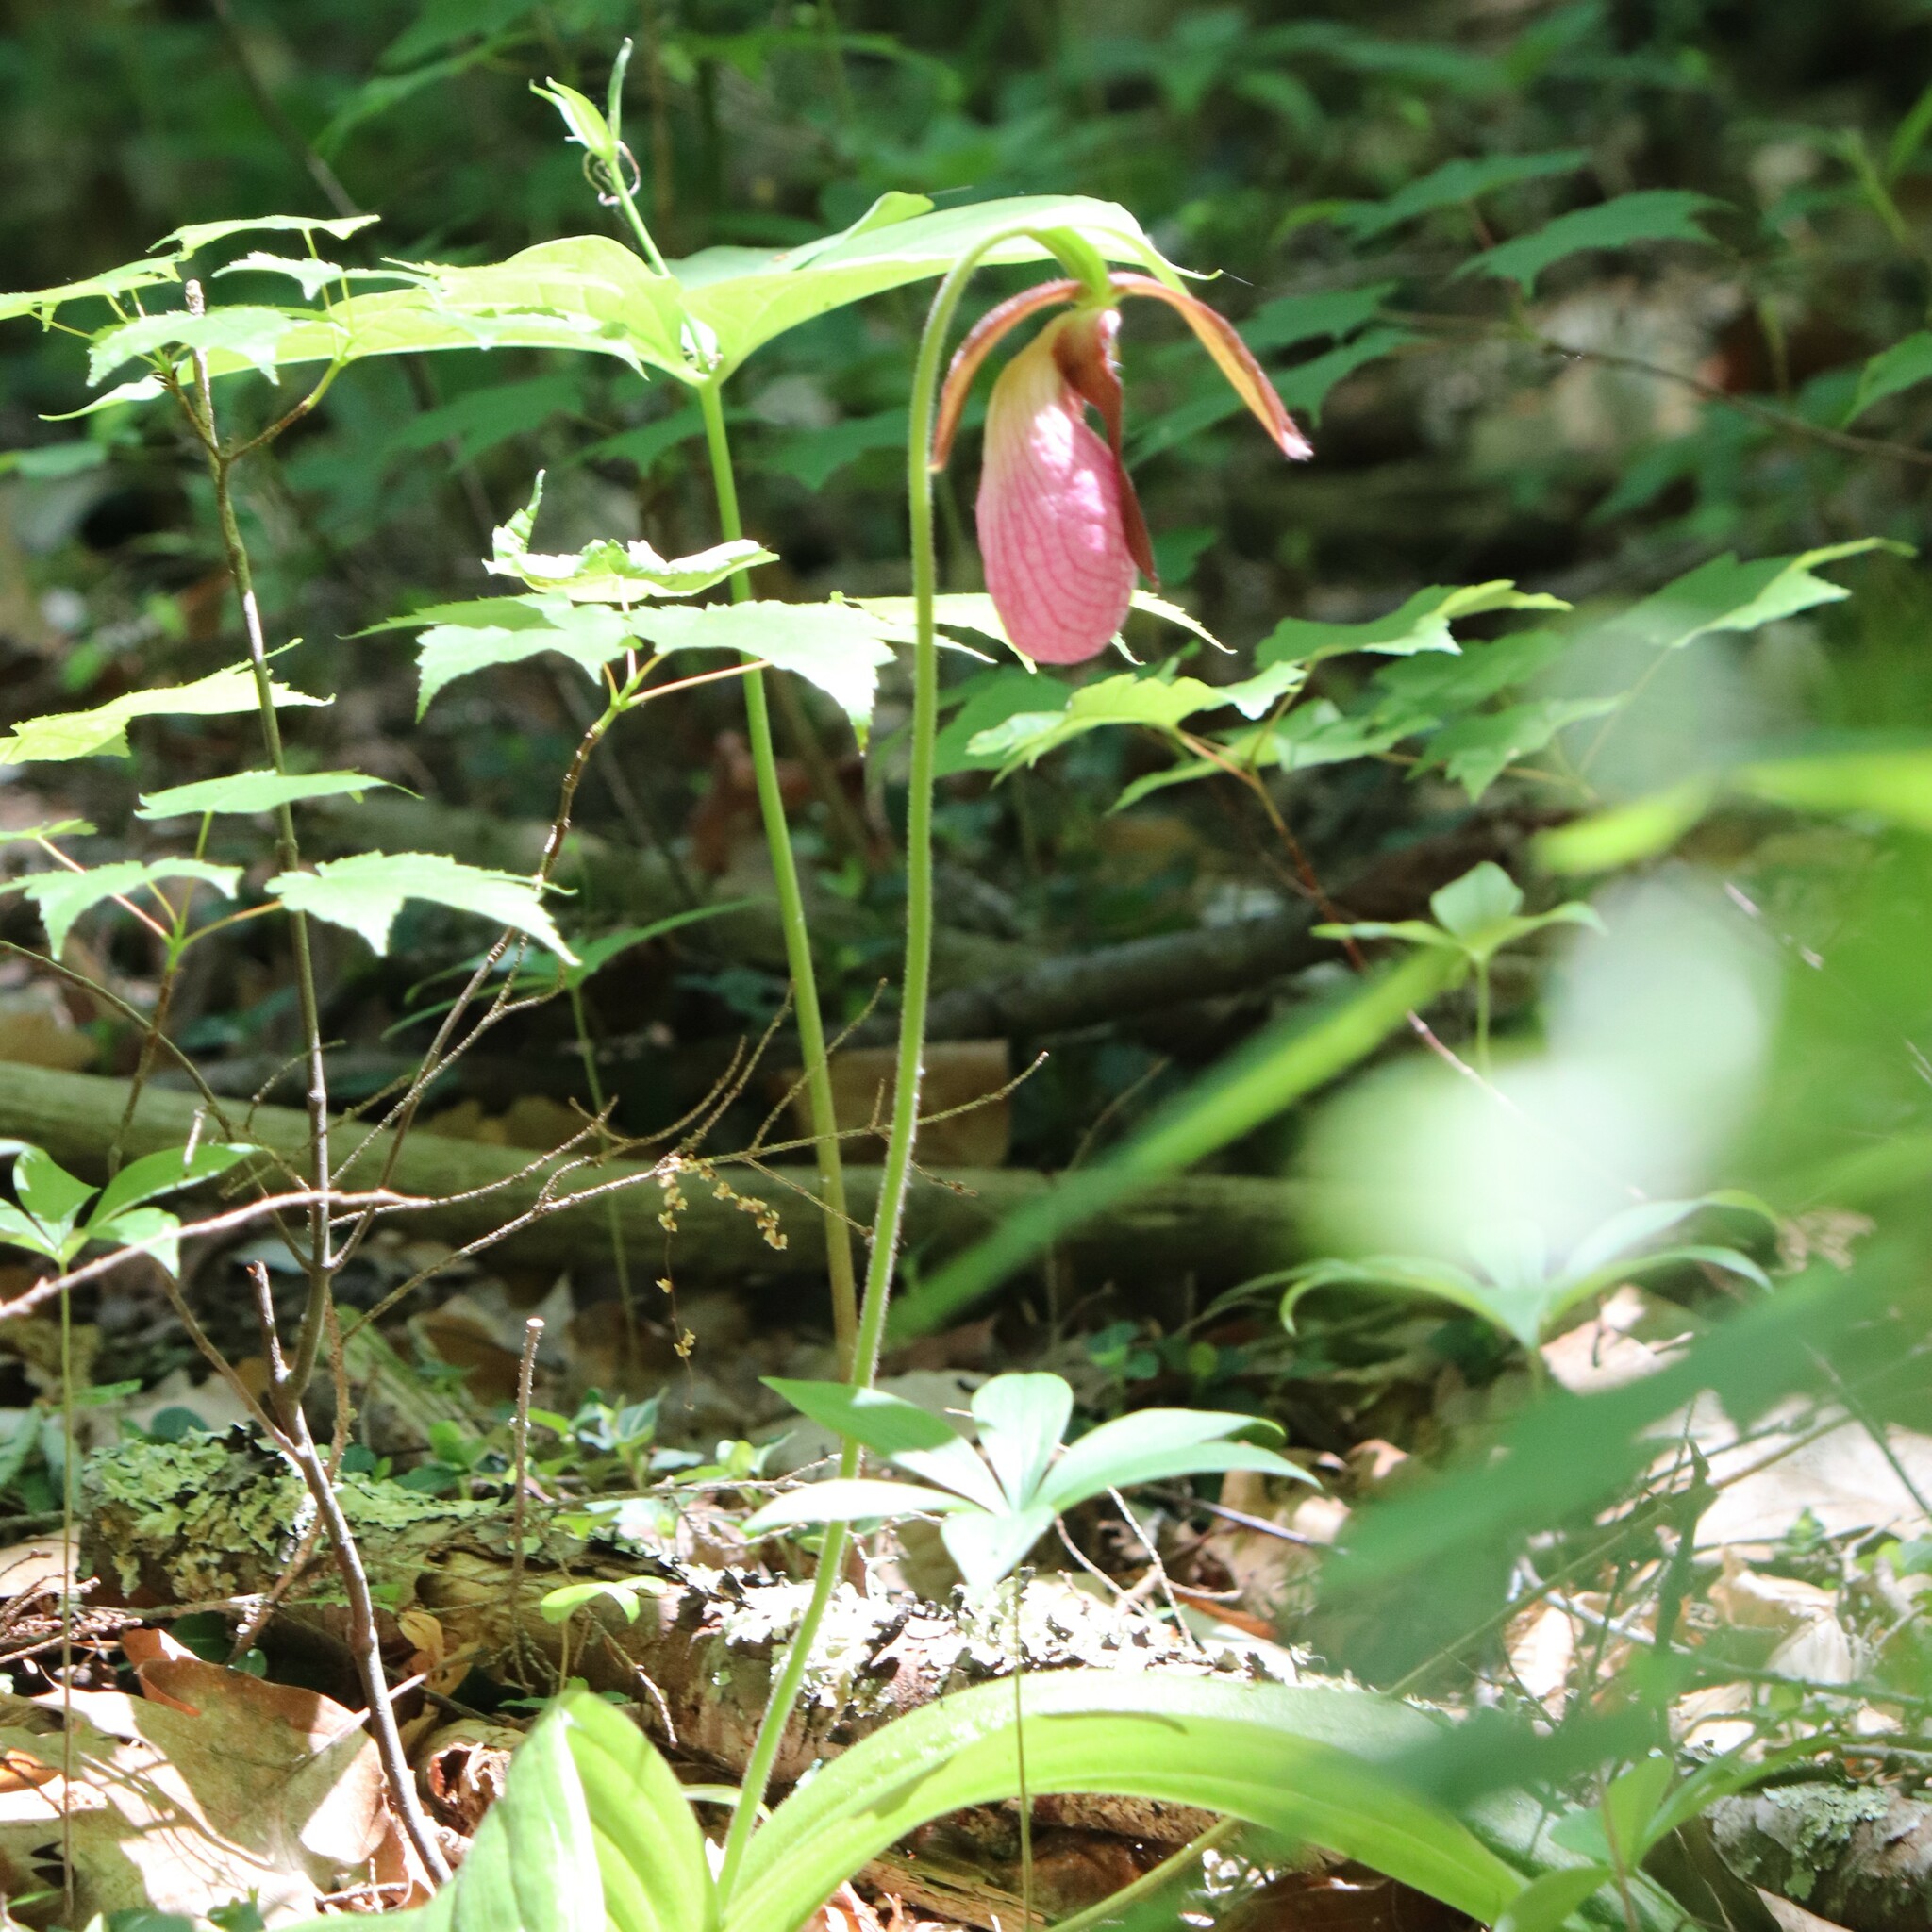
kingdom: Plantae
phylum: Tracheophyta
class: Liliopsida
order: Asparagales
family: Orchidaceae
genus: Cypripedium
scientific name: Cypripedium acaule
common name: Pink lady's-slipper
